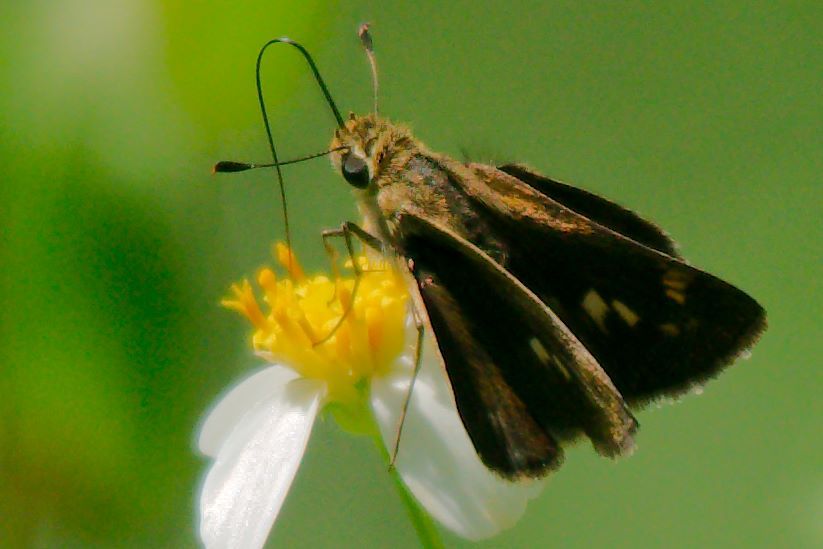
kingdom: Animalia
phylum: Arthropoda
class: Insecta
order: Lepidoptera
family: Hesperiidae
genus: Polites
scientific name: Polites vibex
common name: Whirlabout
